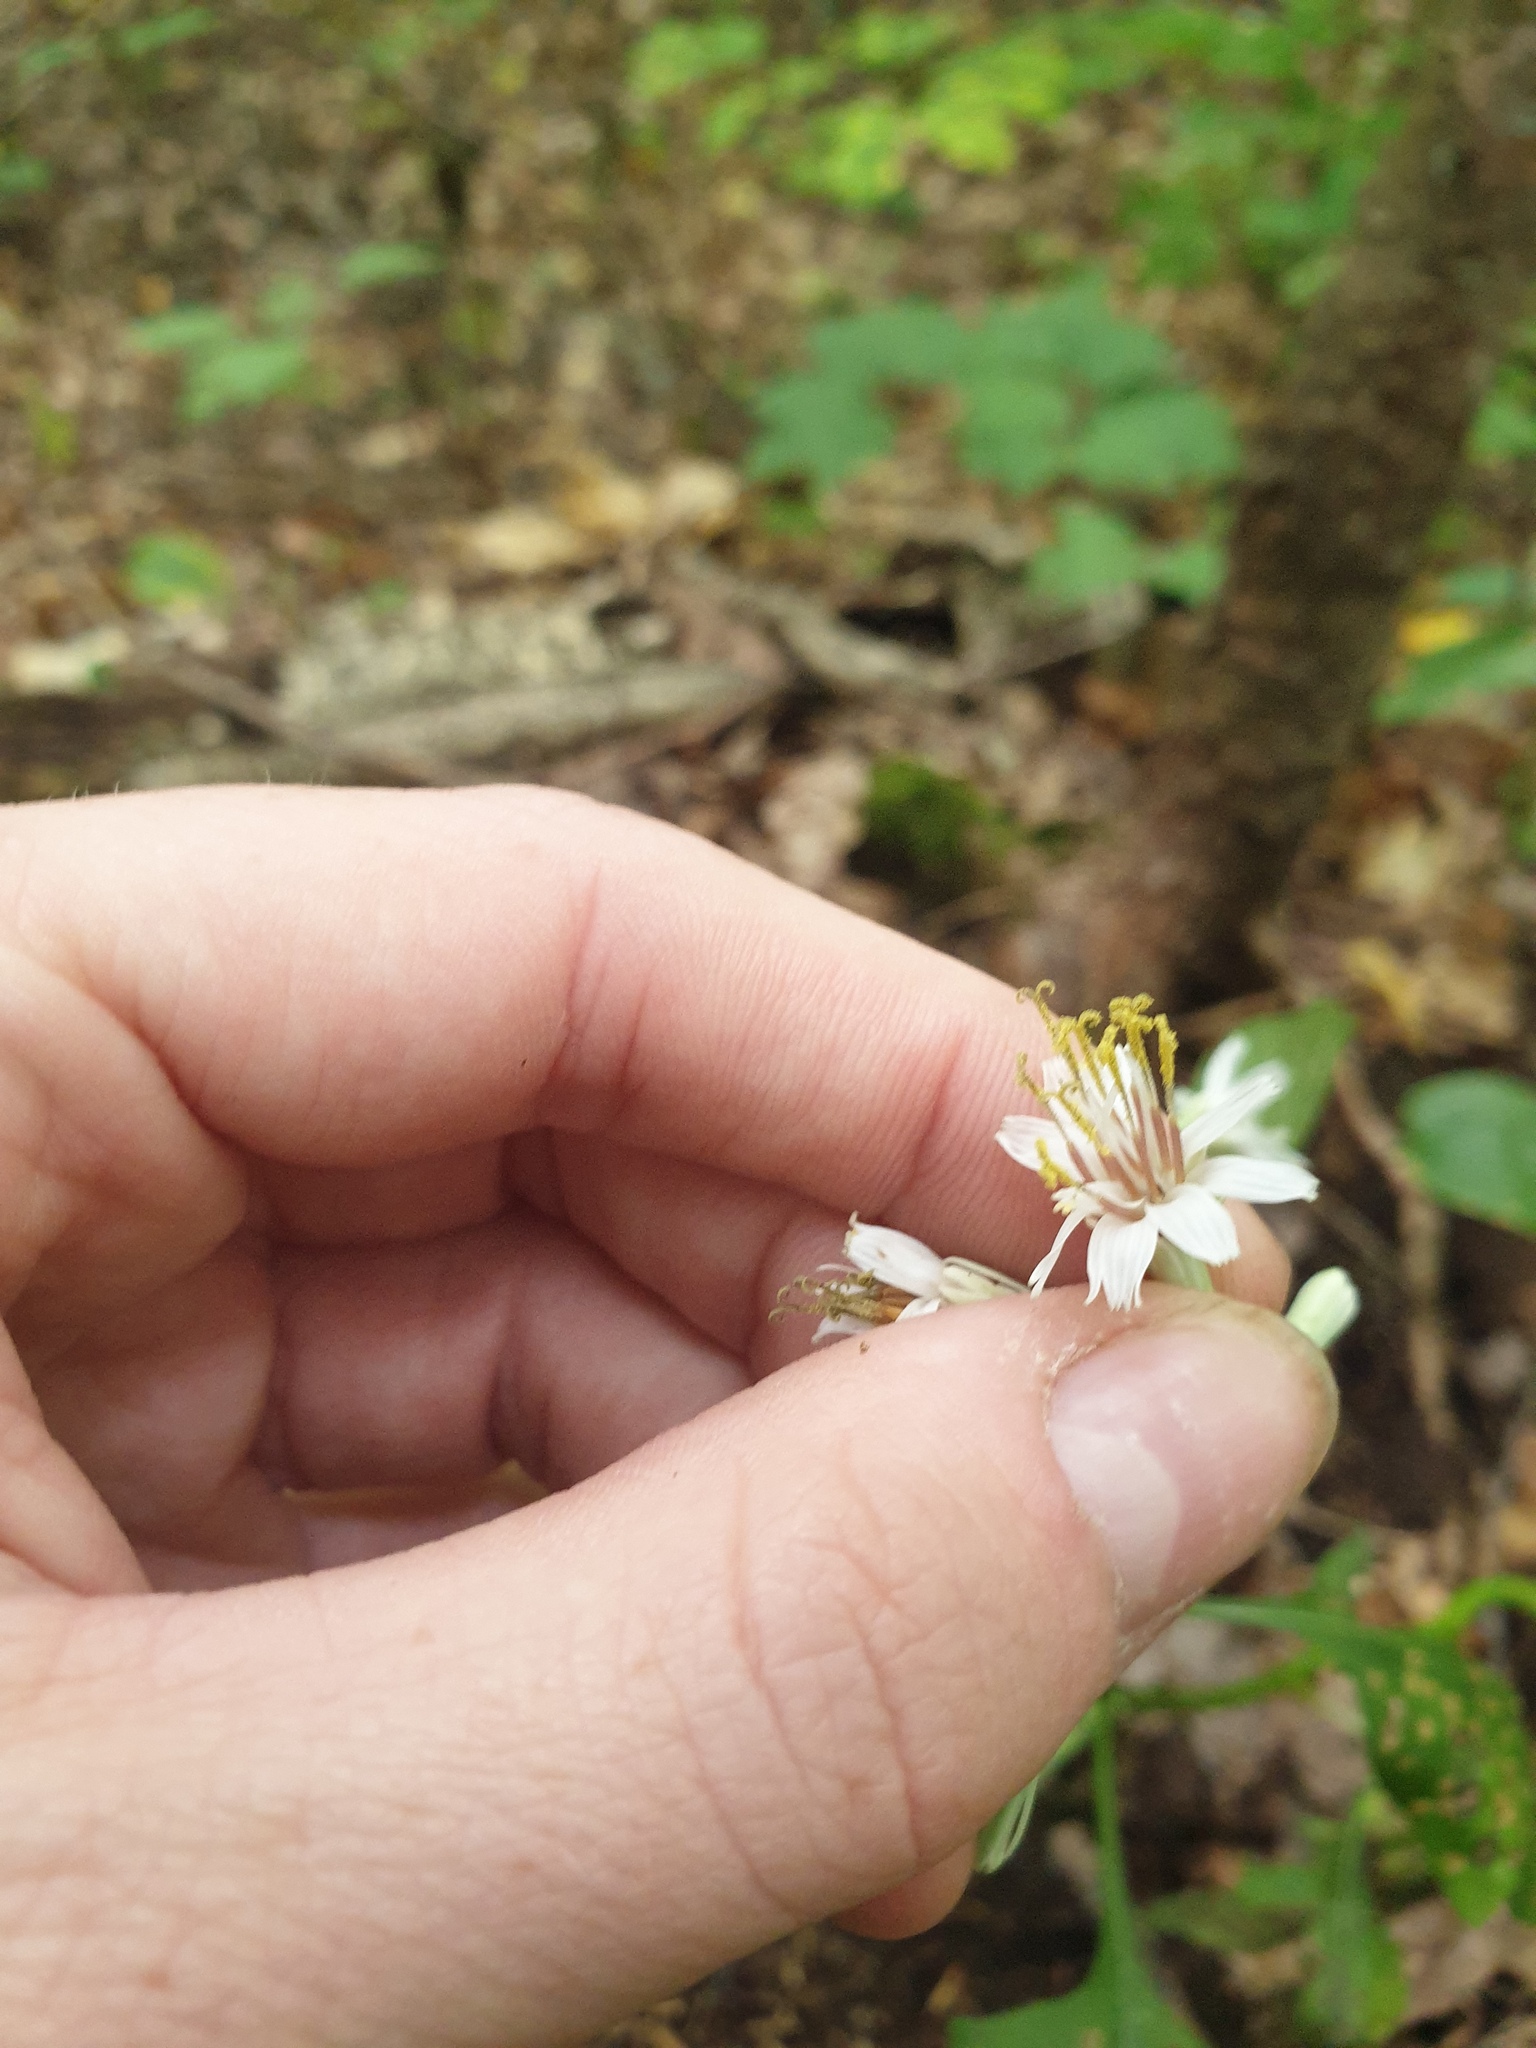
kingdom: Plantae
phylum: Tracheophyta
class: Magnoliopsida
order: Asterales
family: Asteraceae
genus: Nabalus
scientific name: Nabalus albus
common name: White rattlesnakeroot
